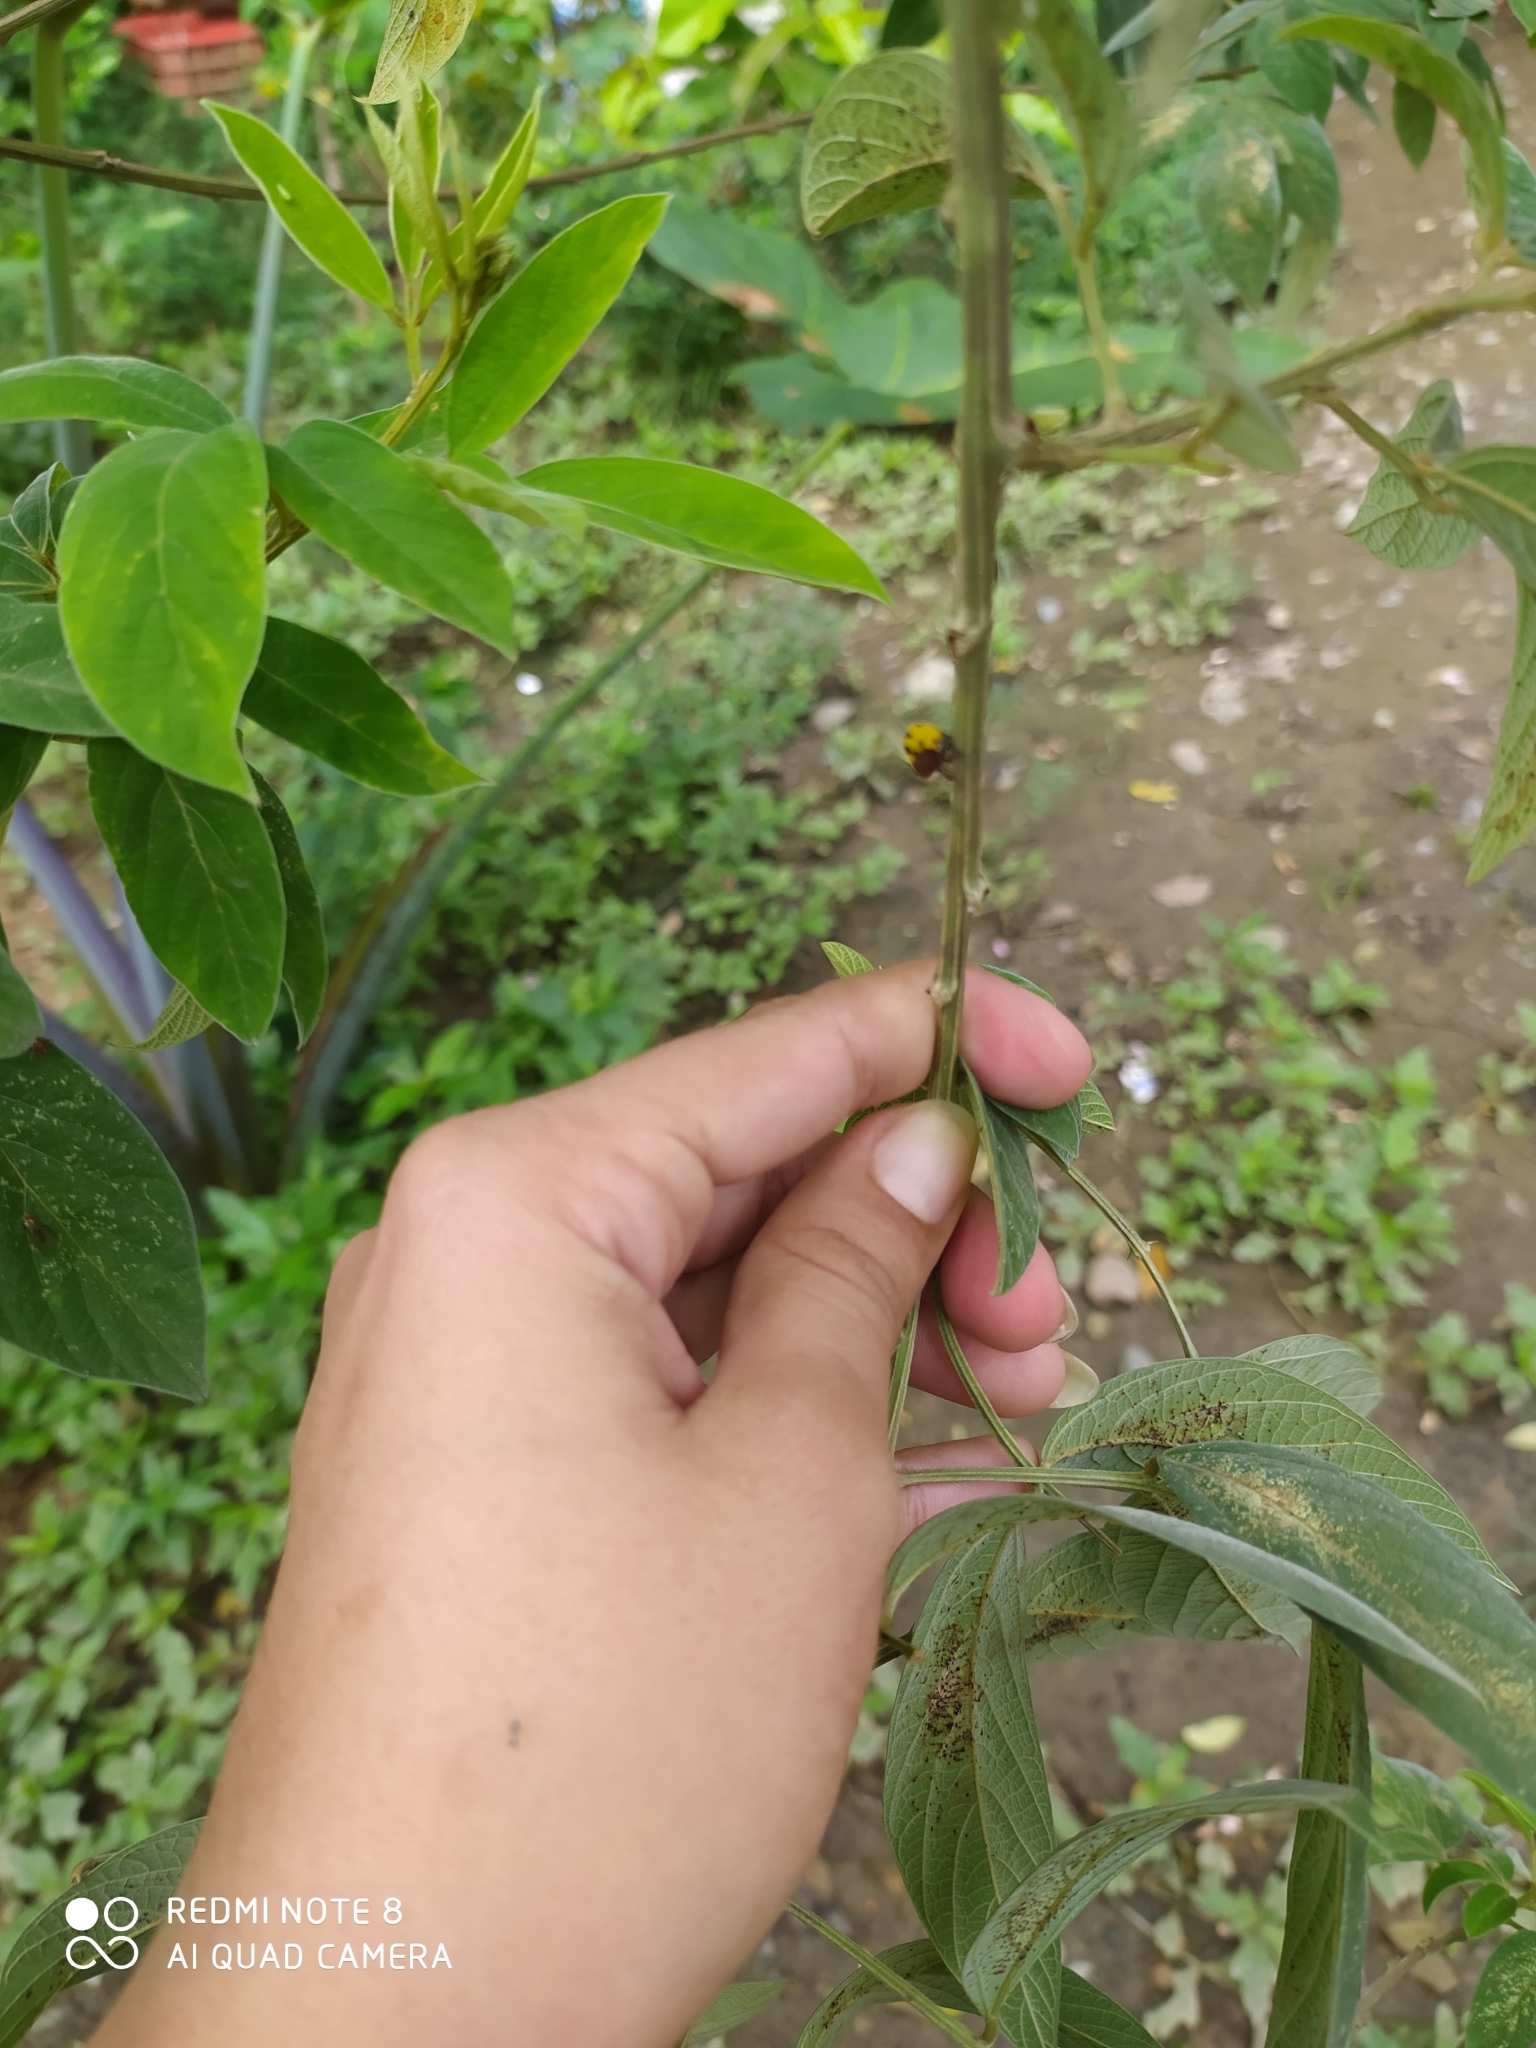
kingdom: Animalia
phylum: Arthropoda
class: Insecta
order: Hemiptera
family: Membracidae
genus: Membracis
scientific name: Membracis mexicana
